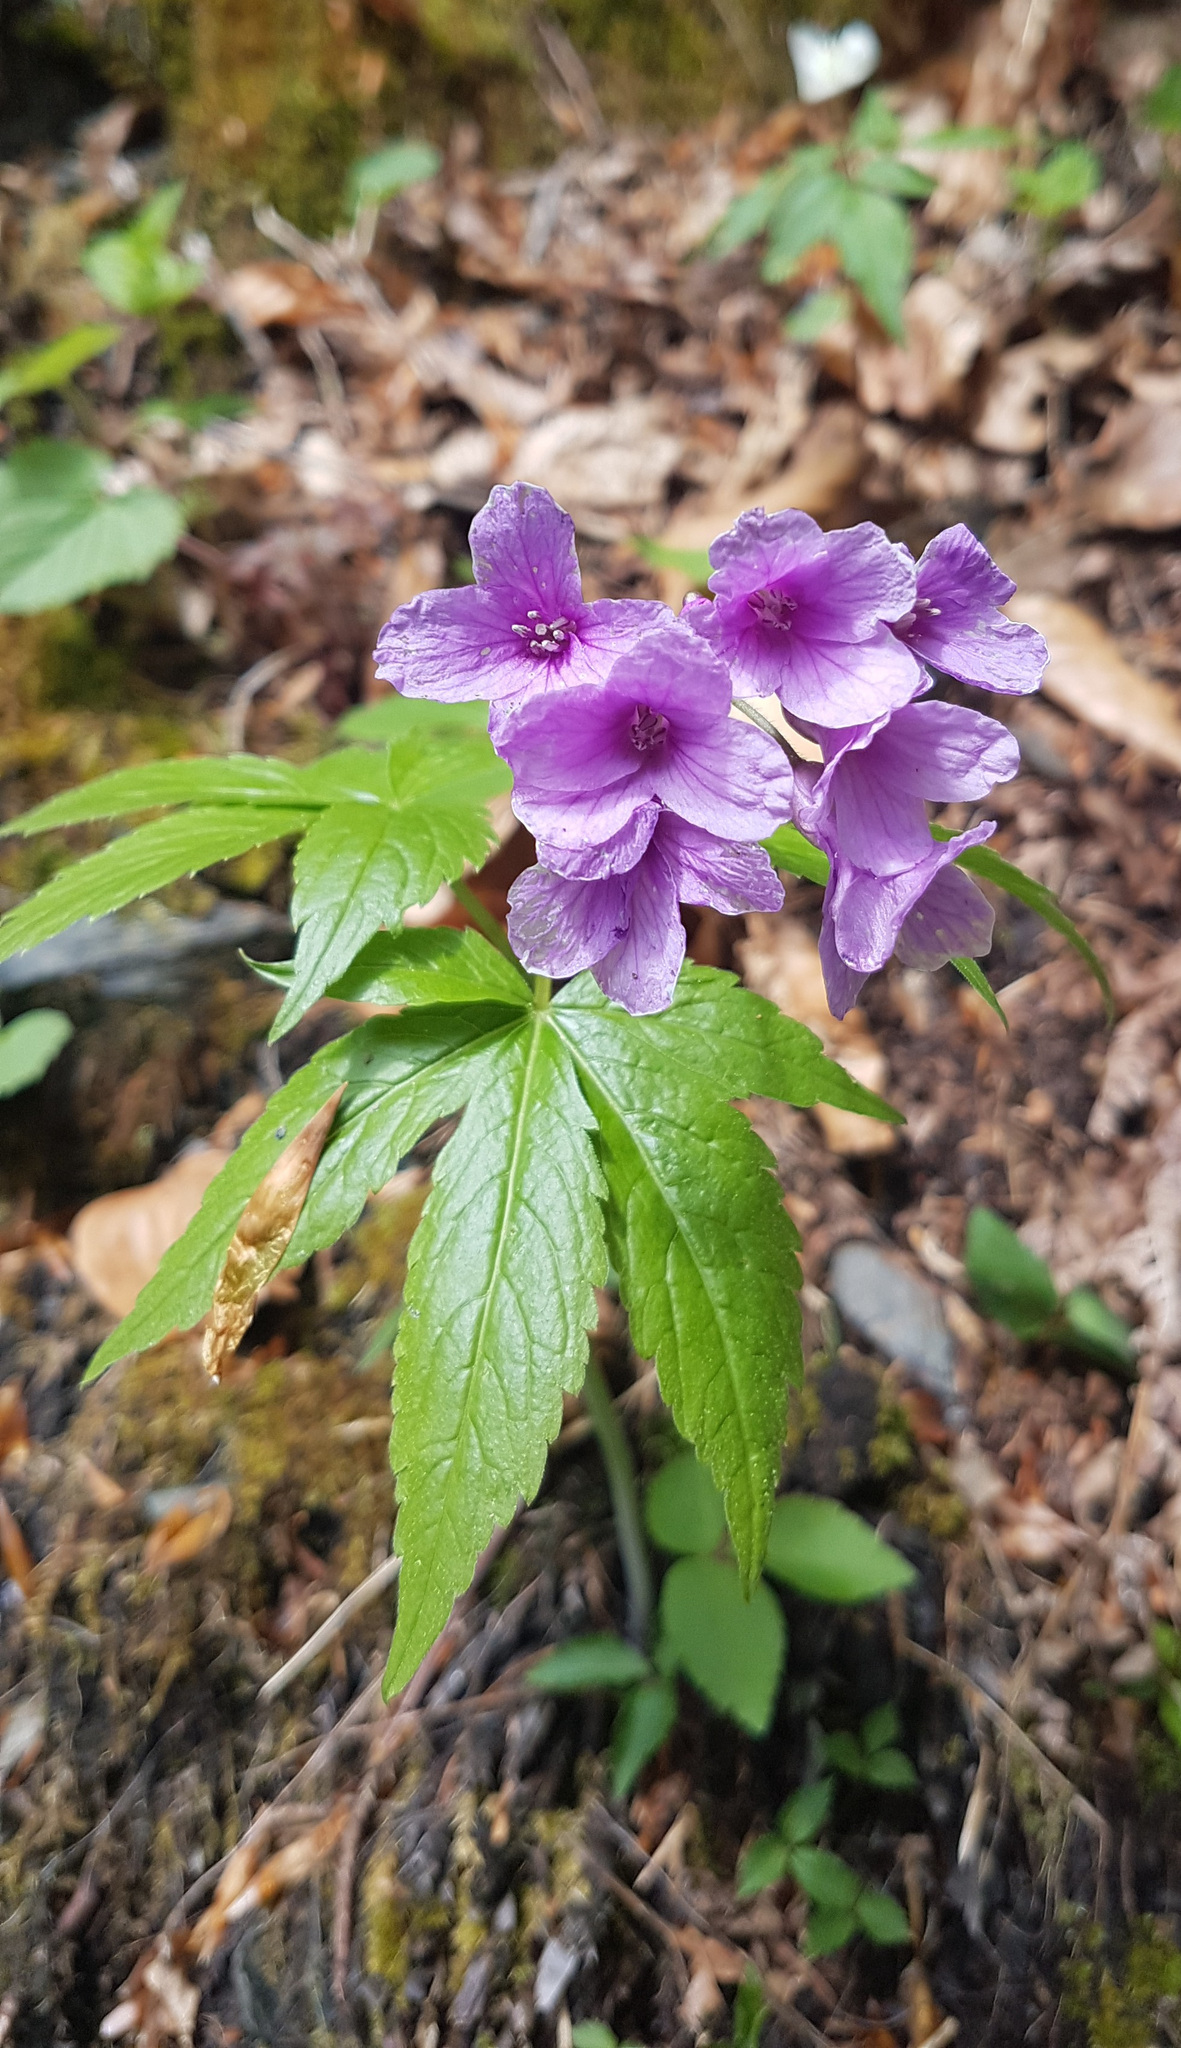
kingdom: Plantae
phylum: Tracheophyta
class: Magnoliopsida
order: Brassicales
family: Brassicaceae
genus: Cardamine
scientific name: Cardamine pentaphyllos
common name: Five-leaflet bitter-cress
